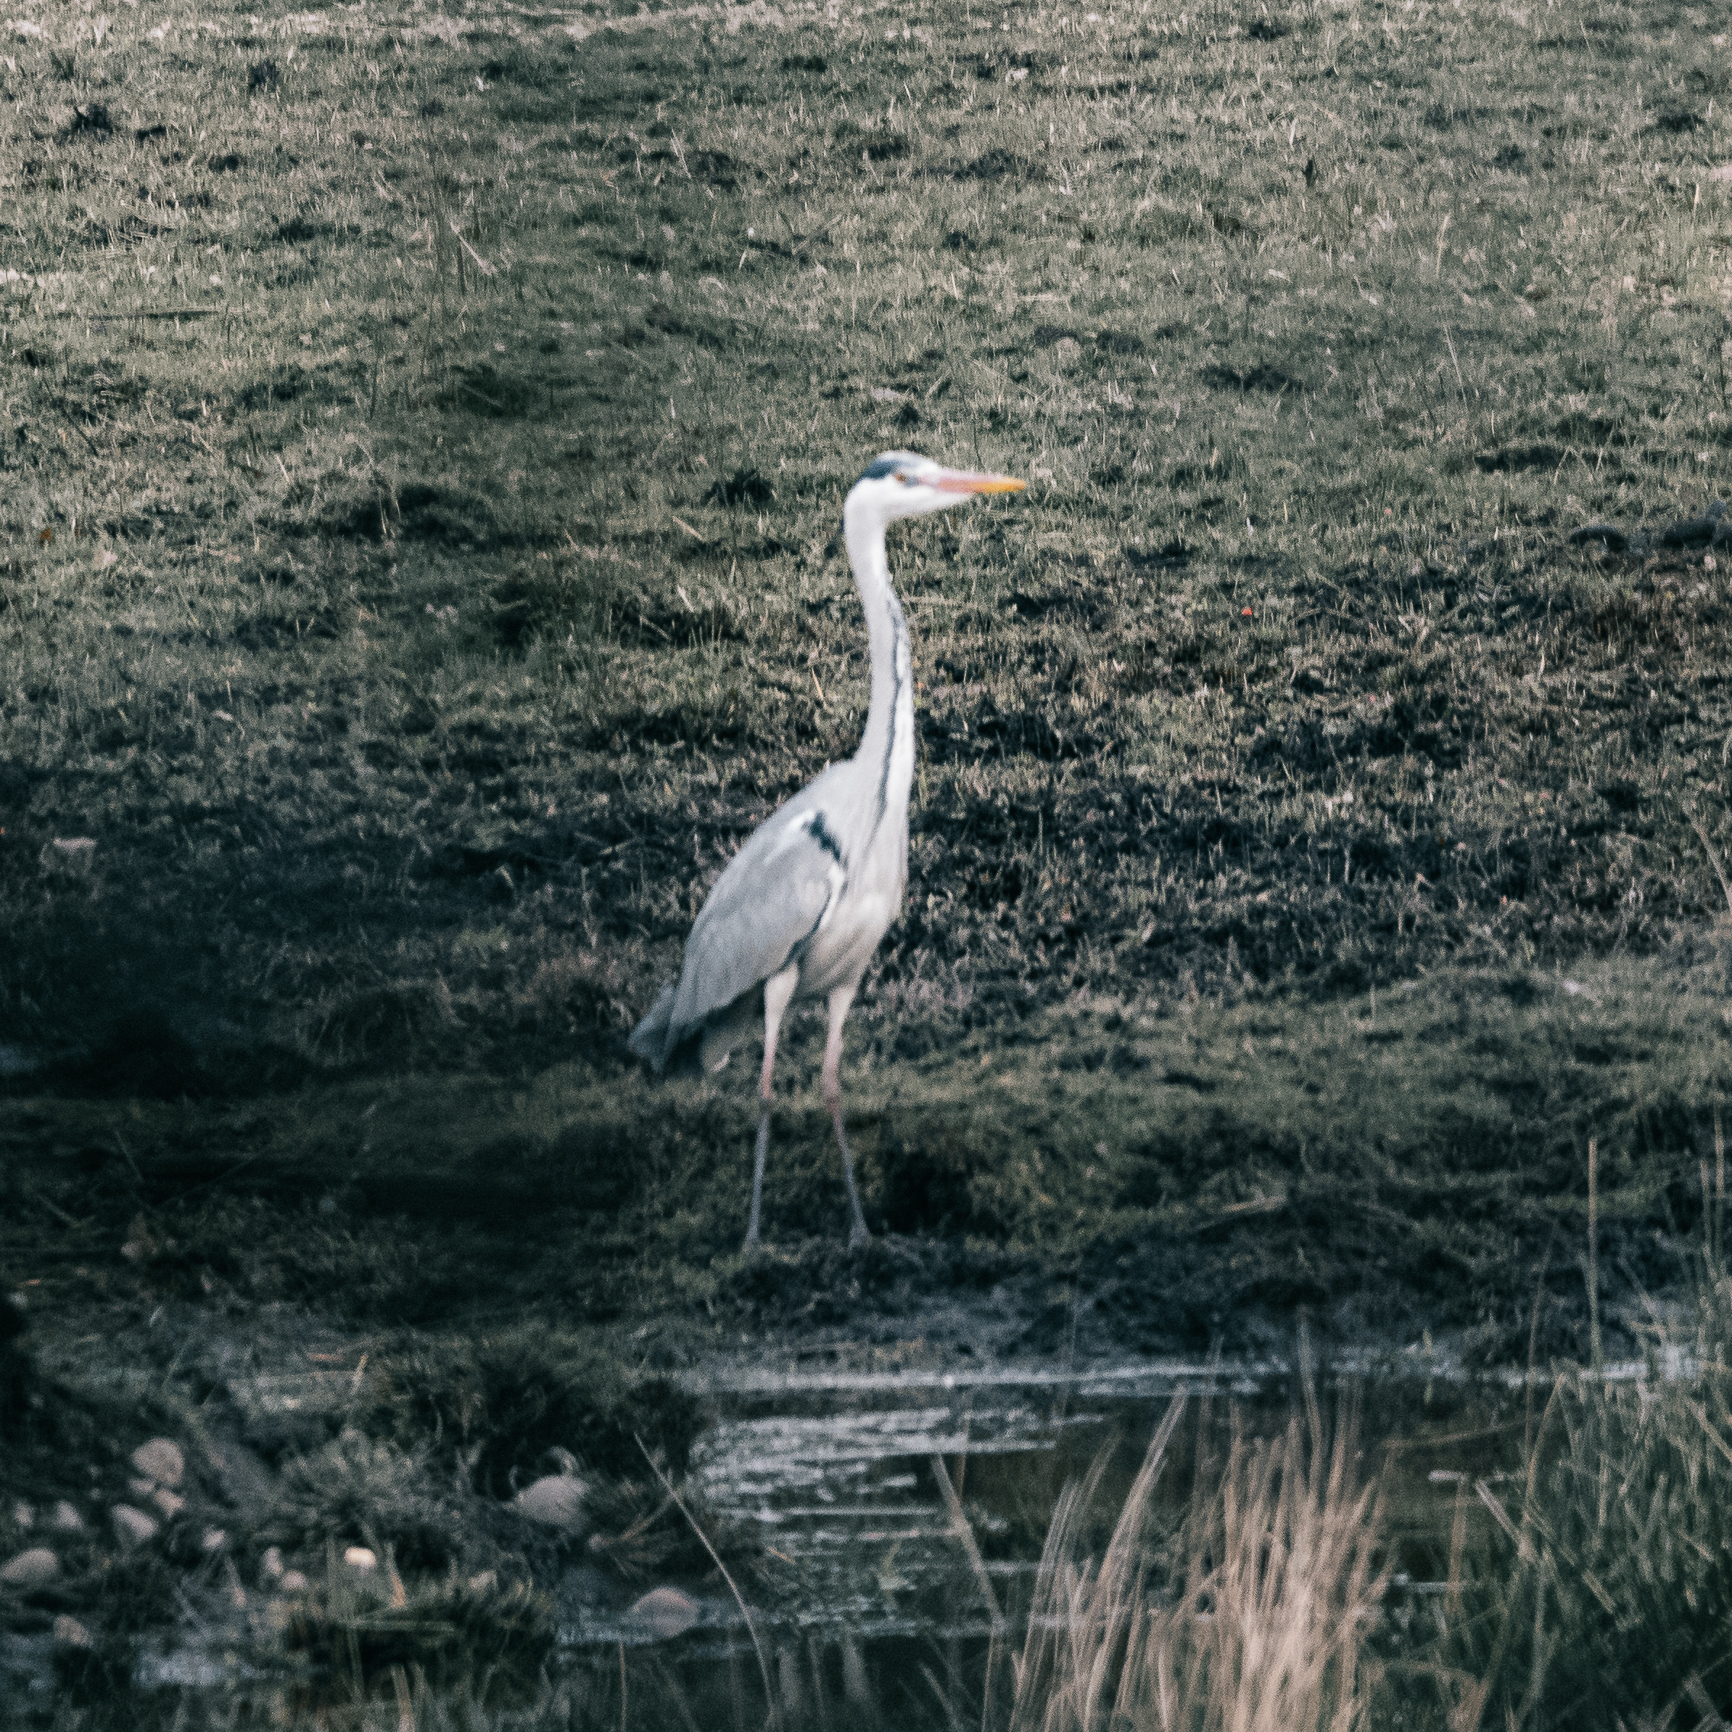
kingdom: Animalia
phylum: Chordata
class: Aves
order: Pelecaniformes
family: Ardeidae
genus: Ardea
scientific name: Ardea cinerea
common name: Grey heron
